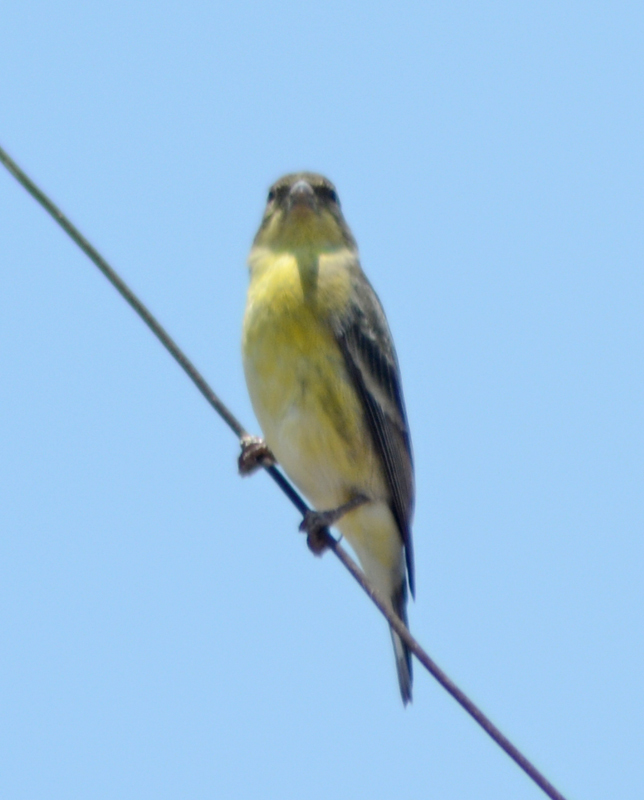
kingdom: Animalia
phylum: Chordata
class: Aves
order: Passeriformes
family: Fringillidae
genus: Spinus
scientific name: Spinus psaltria
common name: Lesser goldfinch
